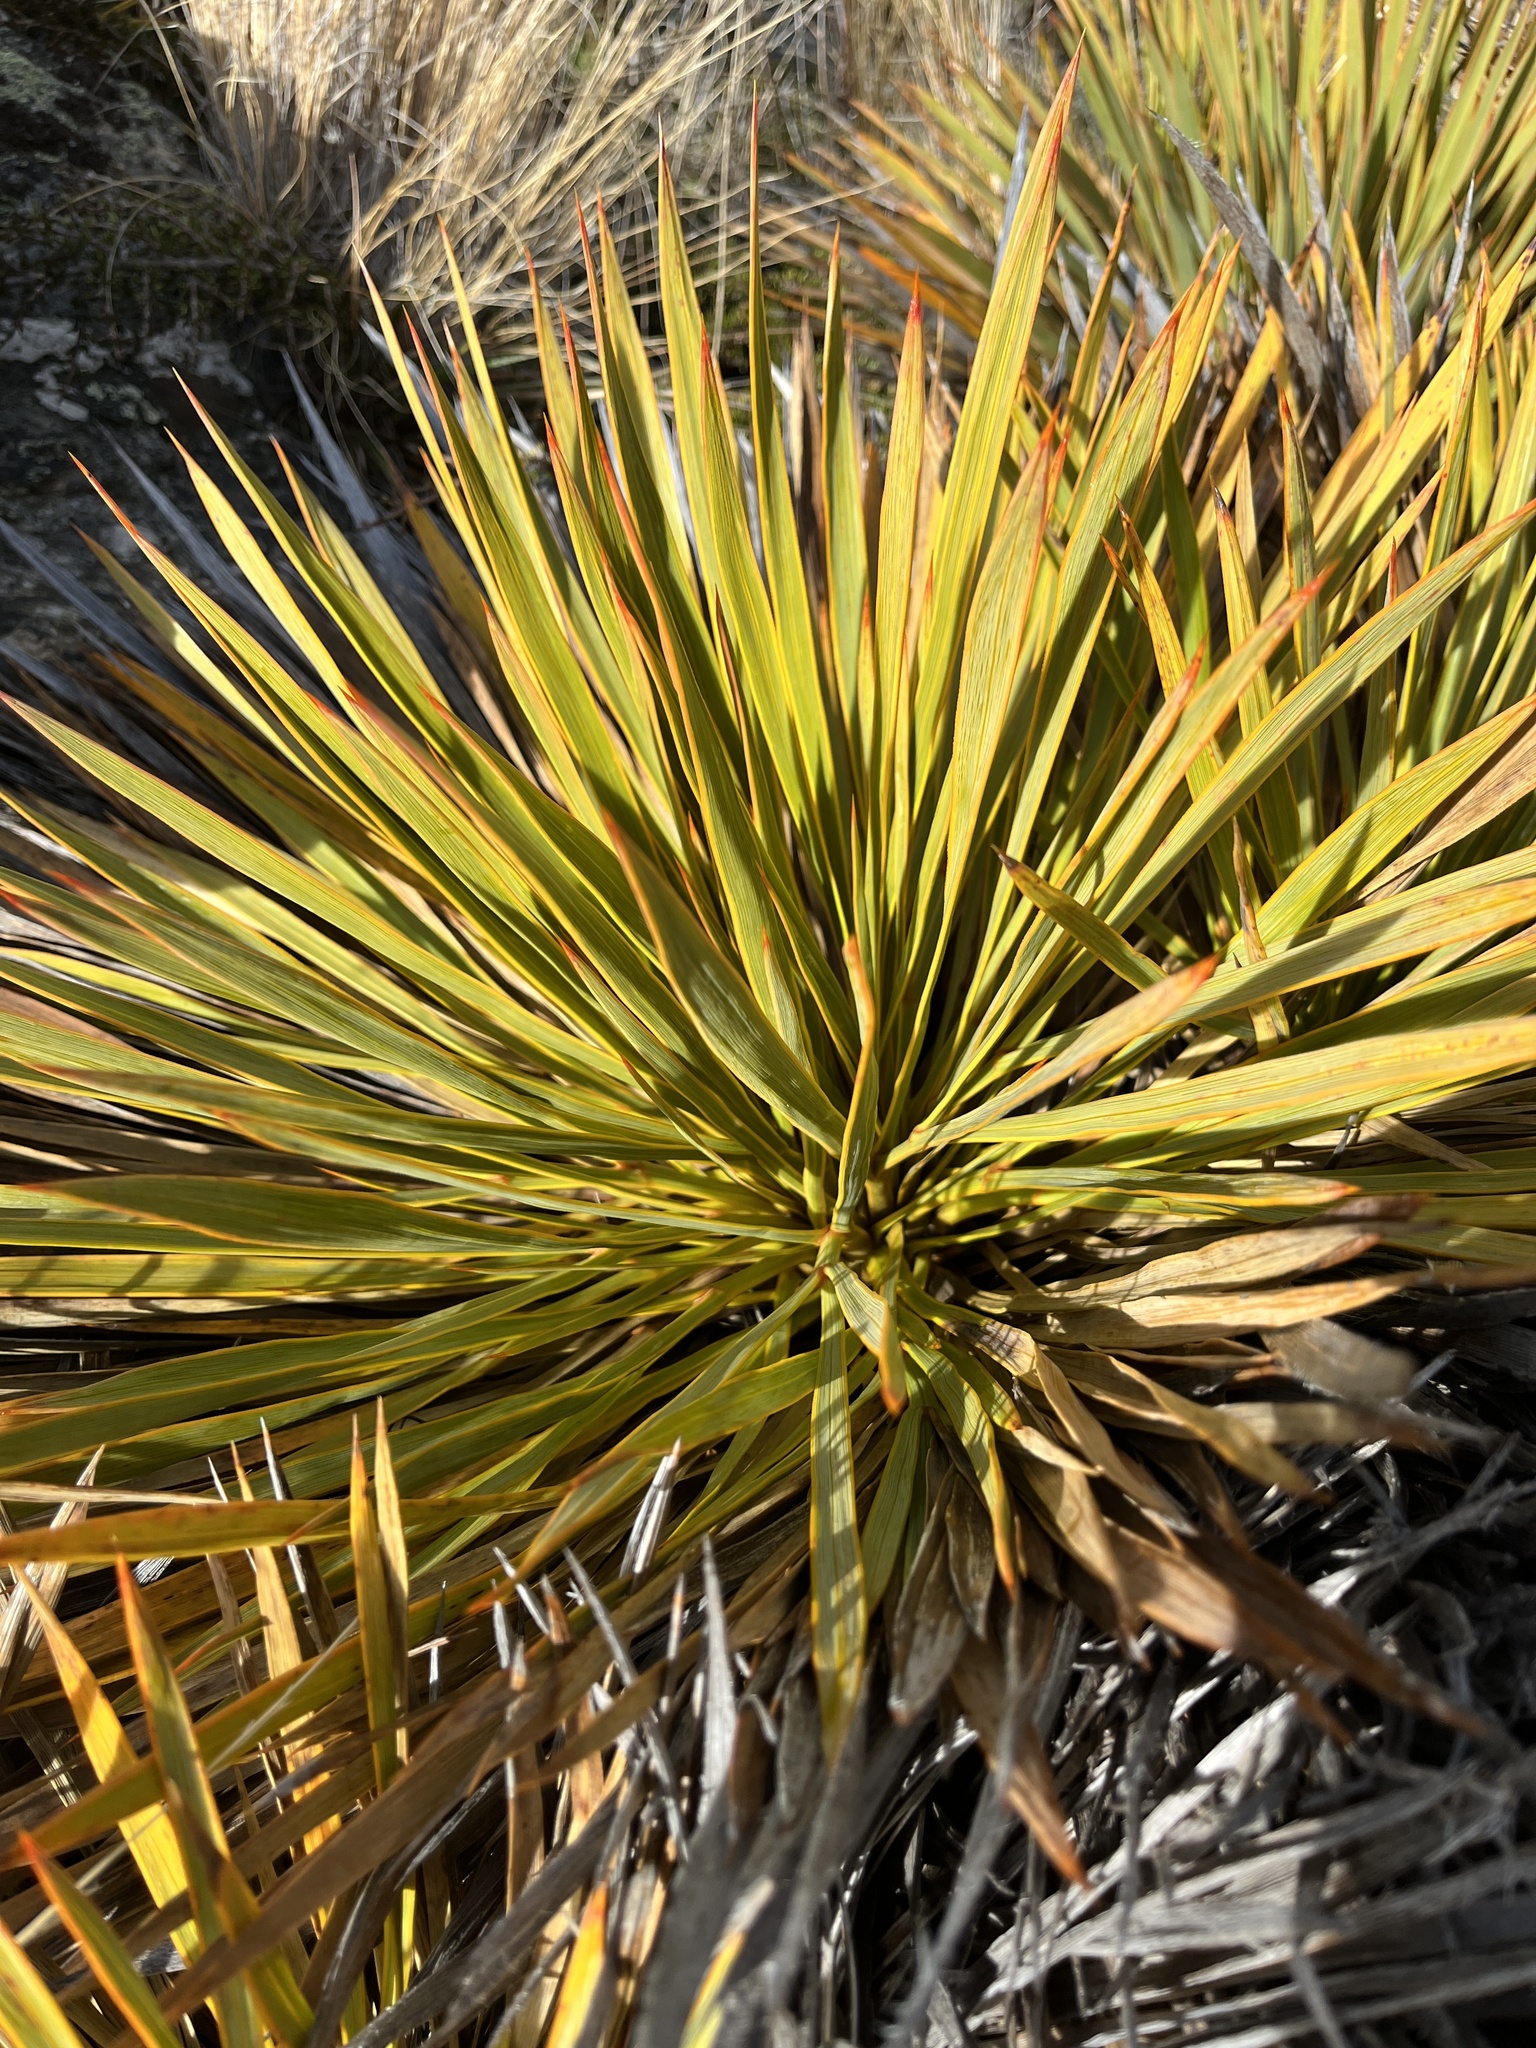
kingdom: Plantae
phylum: Tracheophyta
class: Magnoliopsida
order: Apiales
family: Apiaceae
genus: Aciphylla
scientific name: Aciphylla aurea
